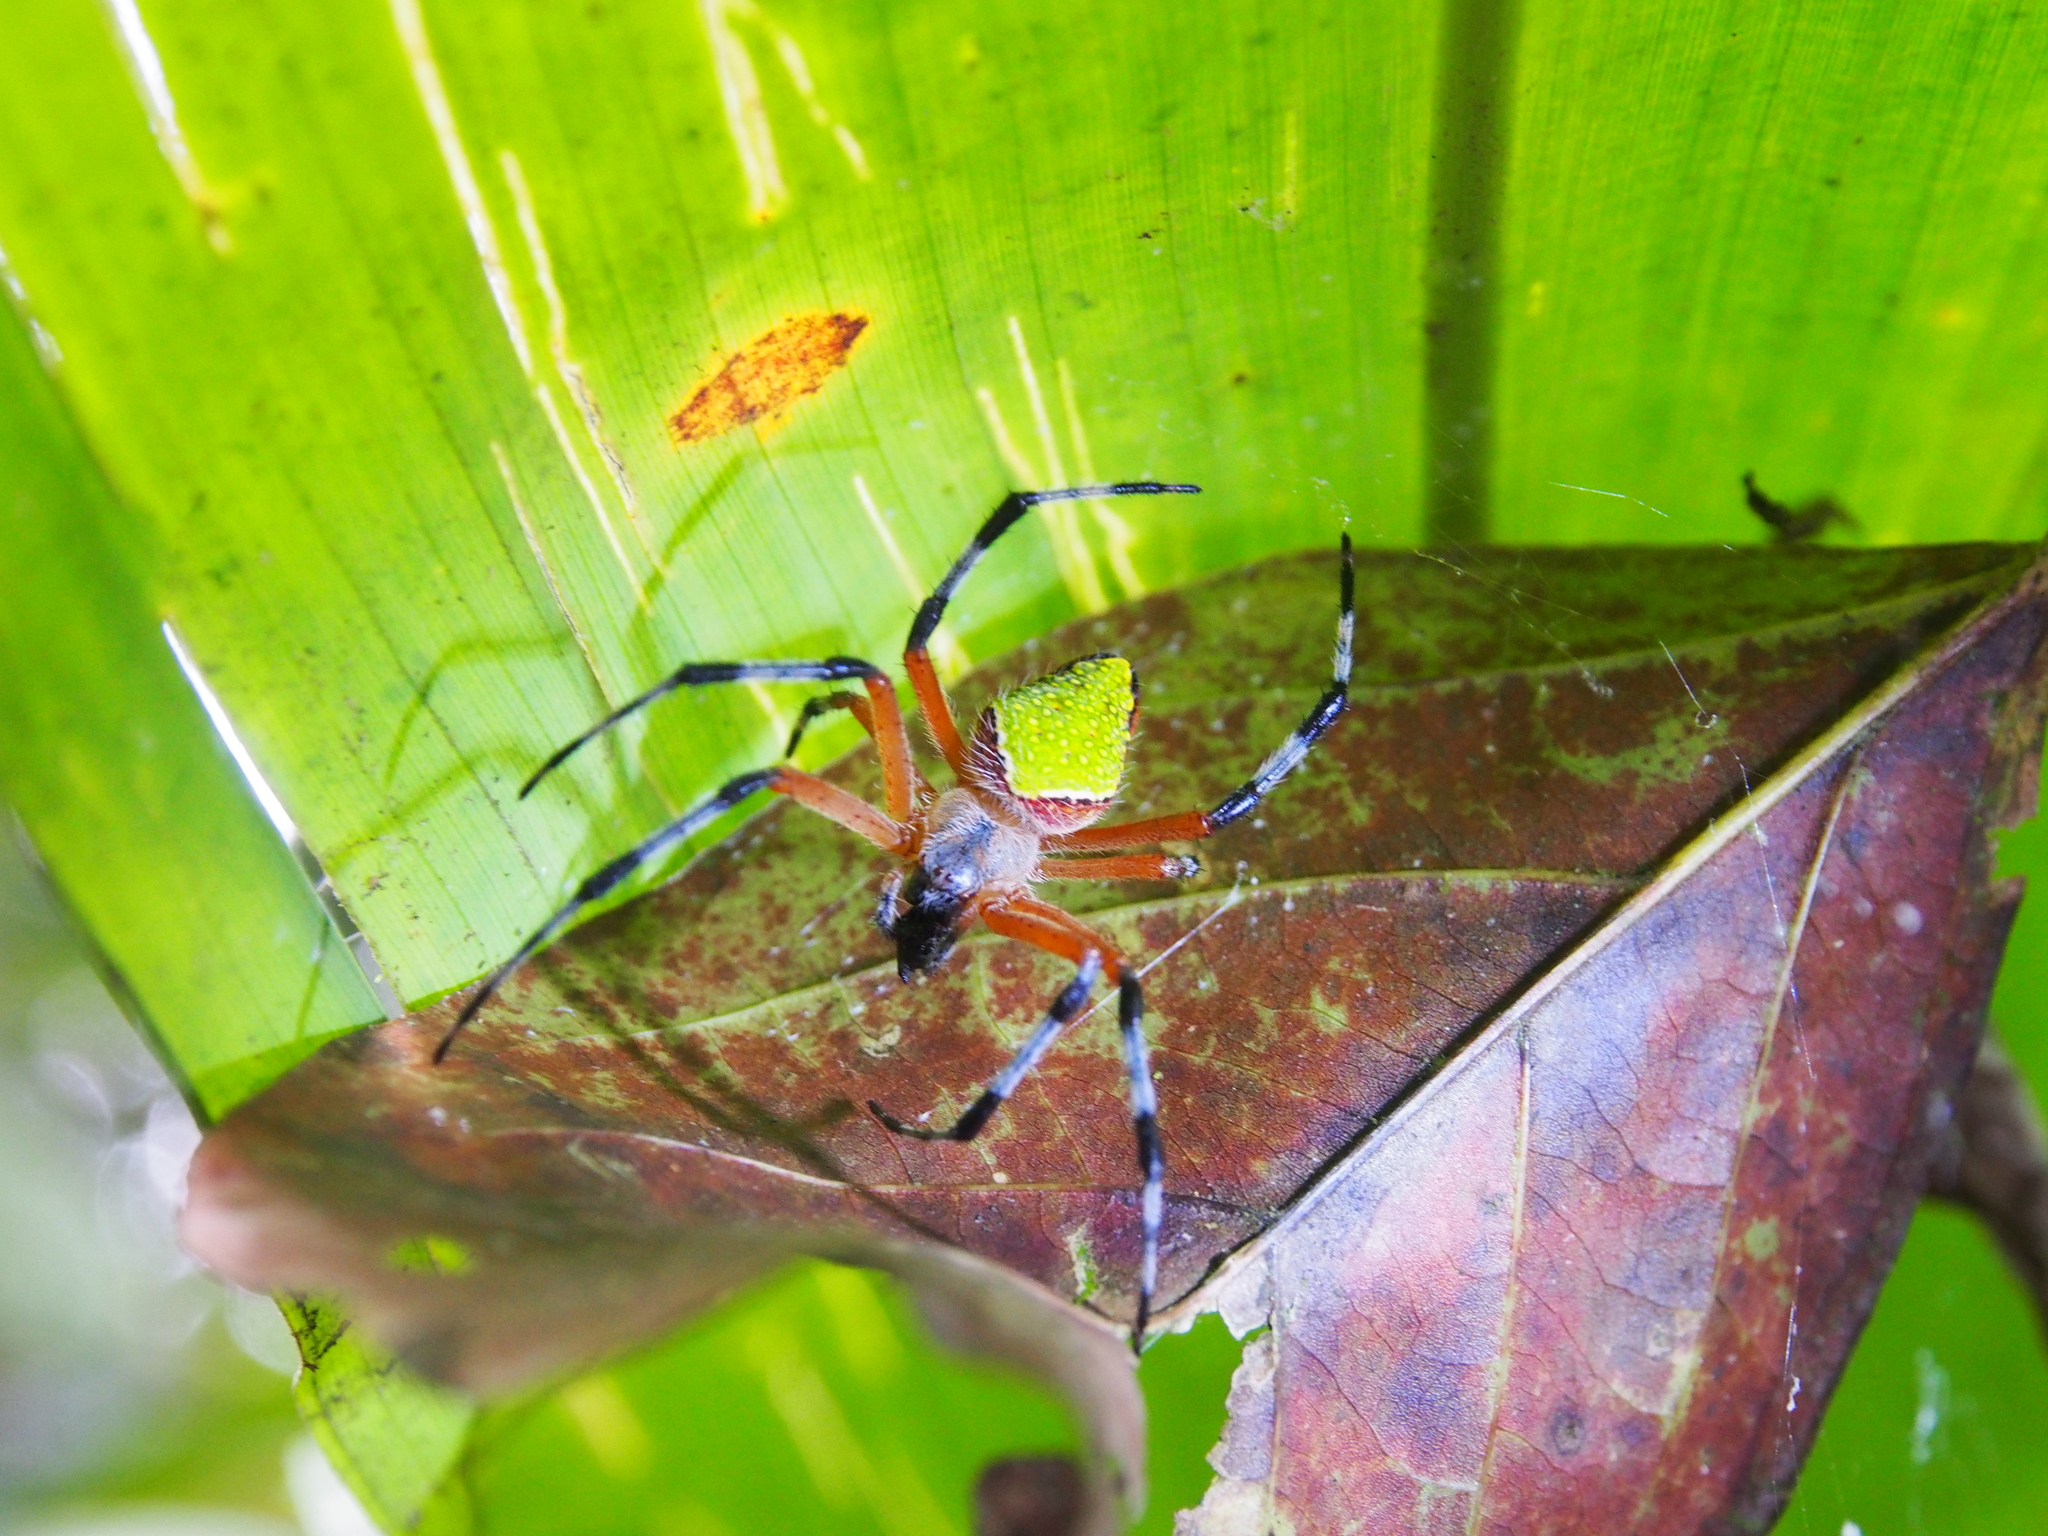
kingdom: Animalia
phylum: Arthropoda
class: Arachnida
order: Araneae
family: Araneidae
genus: Eriophora
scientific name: Eriophora nephiloides
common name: Orb weavers
